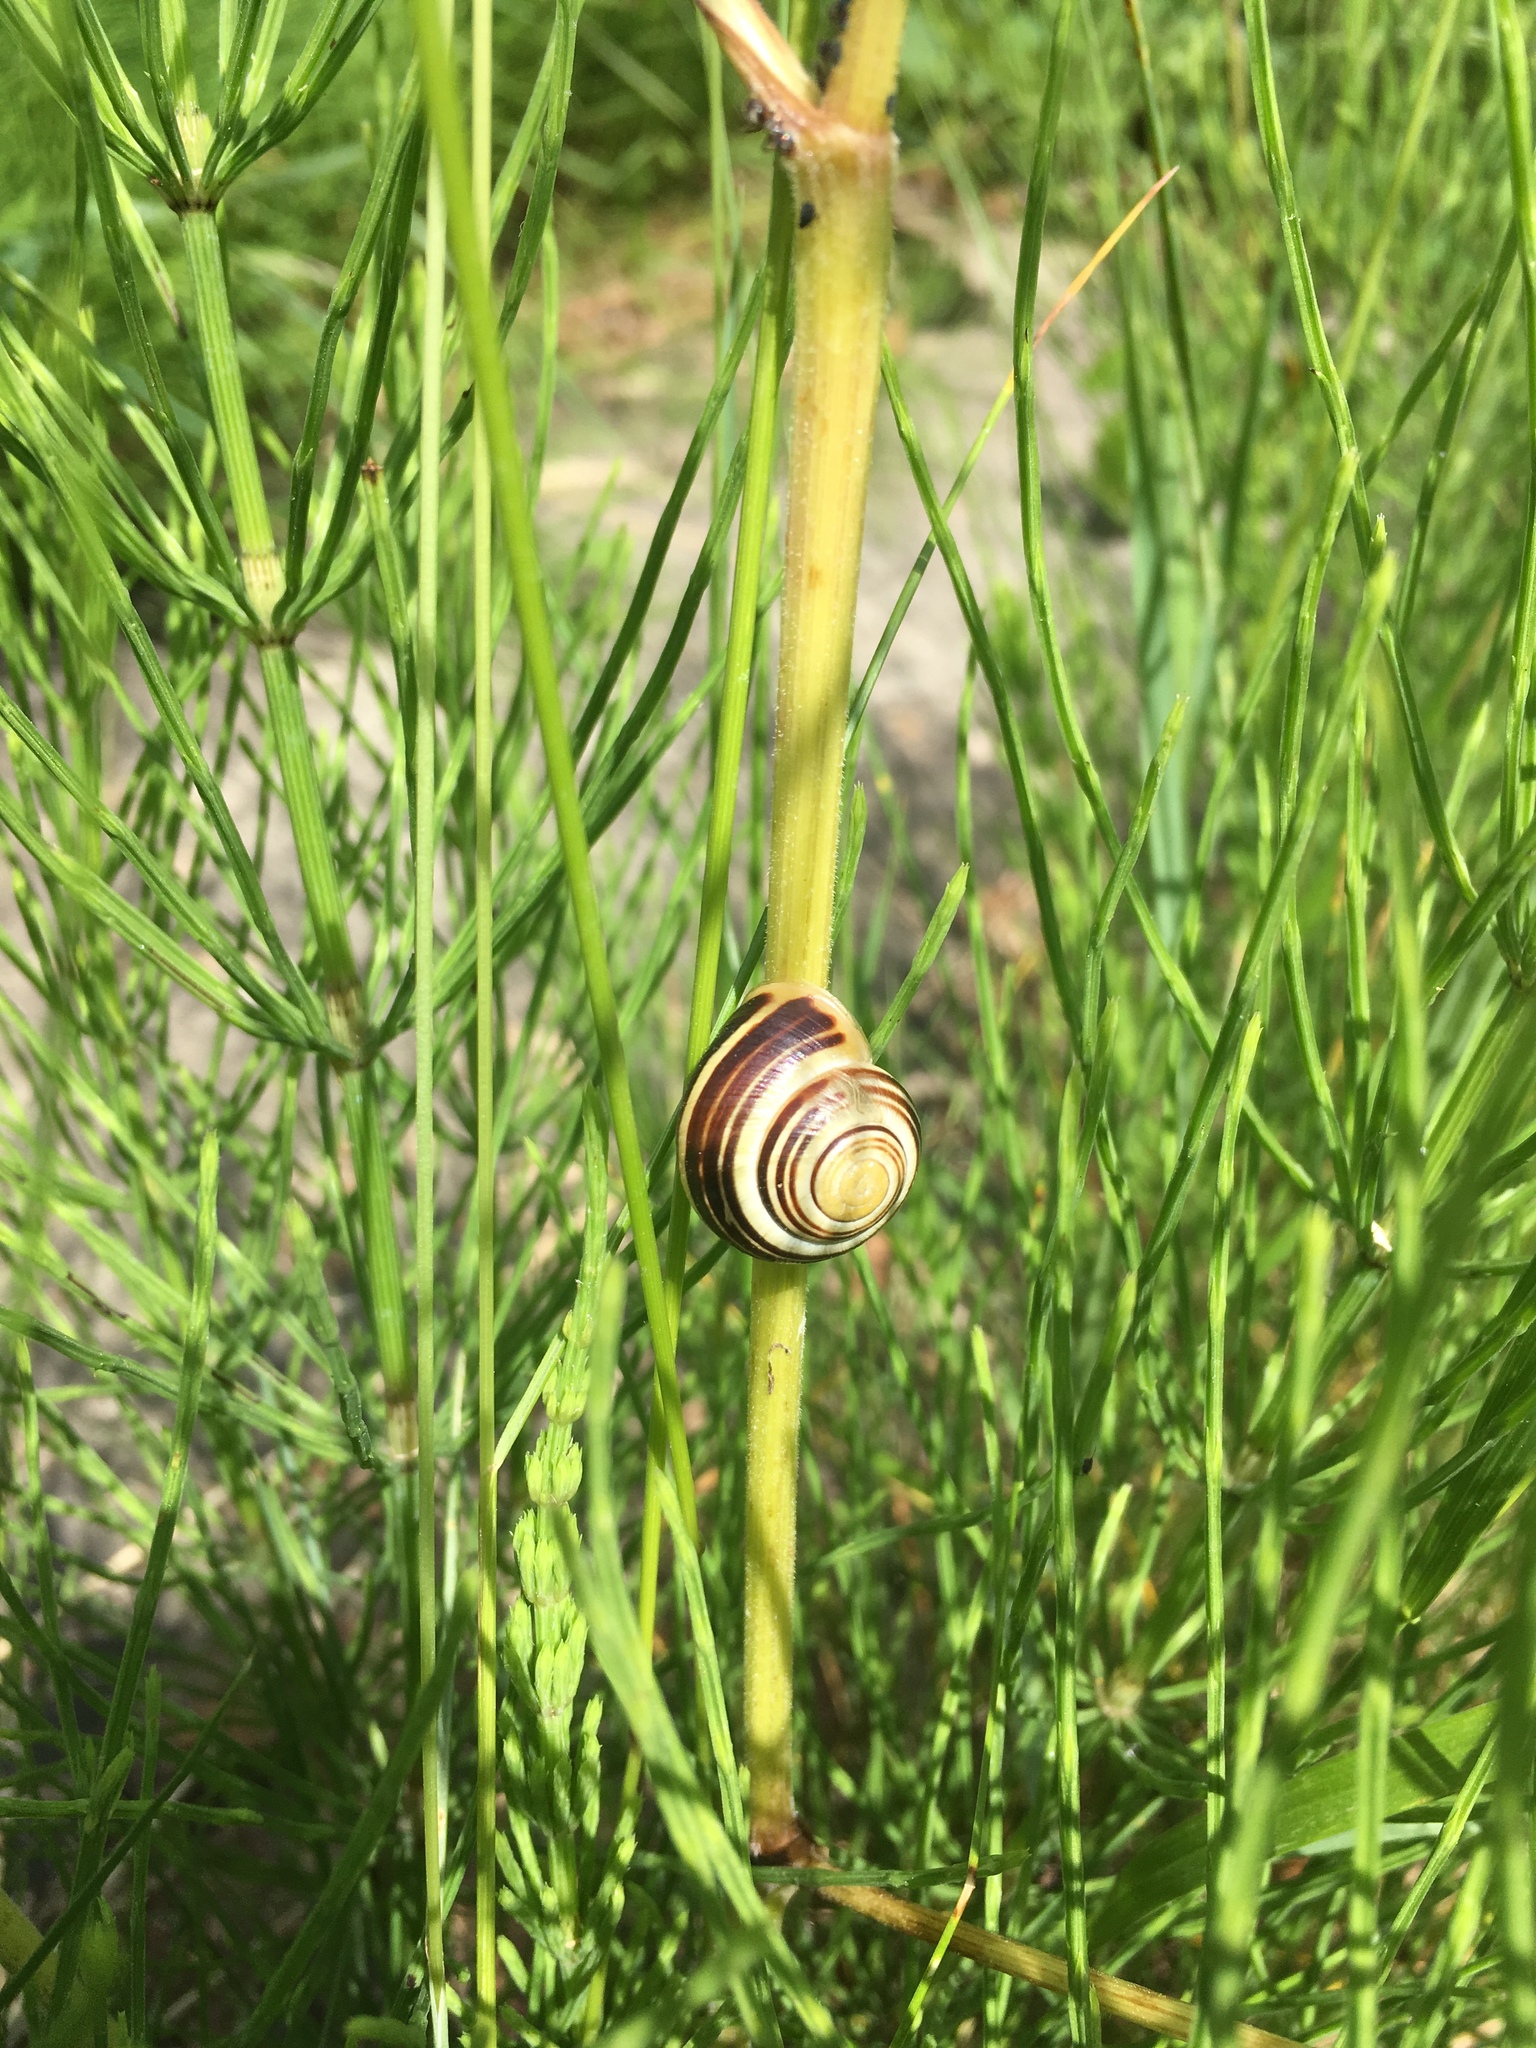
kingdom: Animalia
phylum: Mollusca
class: Gastropoda
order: Stylommatophora
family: Helicidae
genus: Cepaea
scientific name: Cepaea hortensis
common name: White-lip gardensnail
